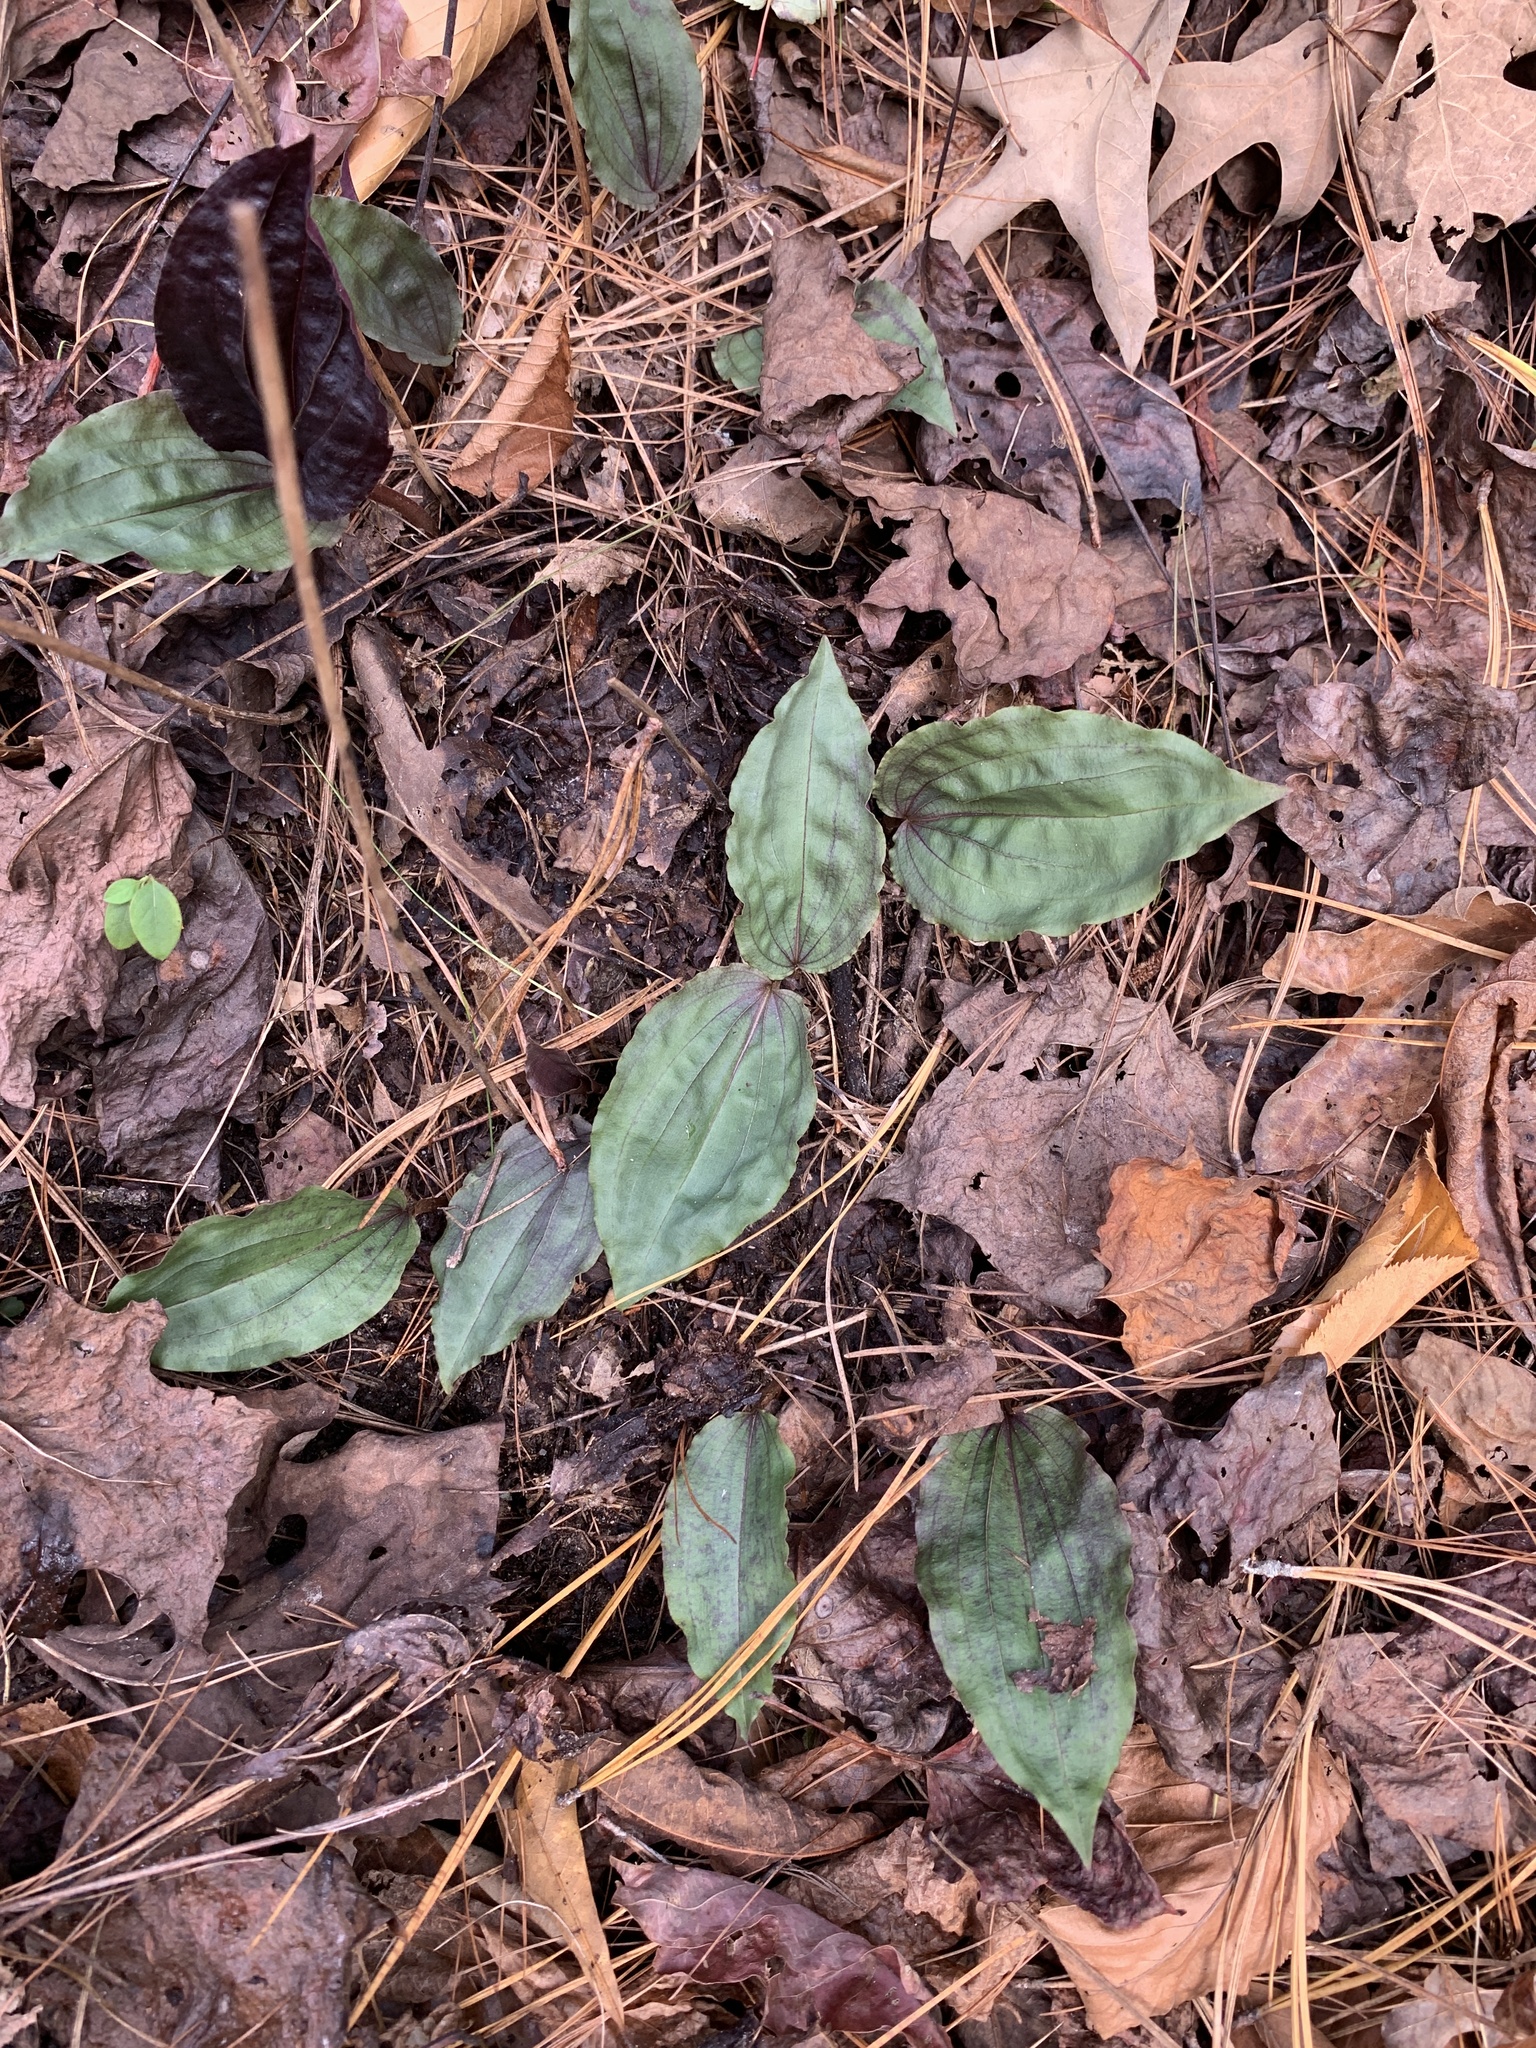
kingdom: Plantae
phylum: Tracheophyta
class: Liliopsida
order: Asparagales
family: Orchidaceae
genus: Tipularia
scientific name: Tipularia discolor
